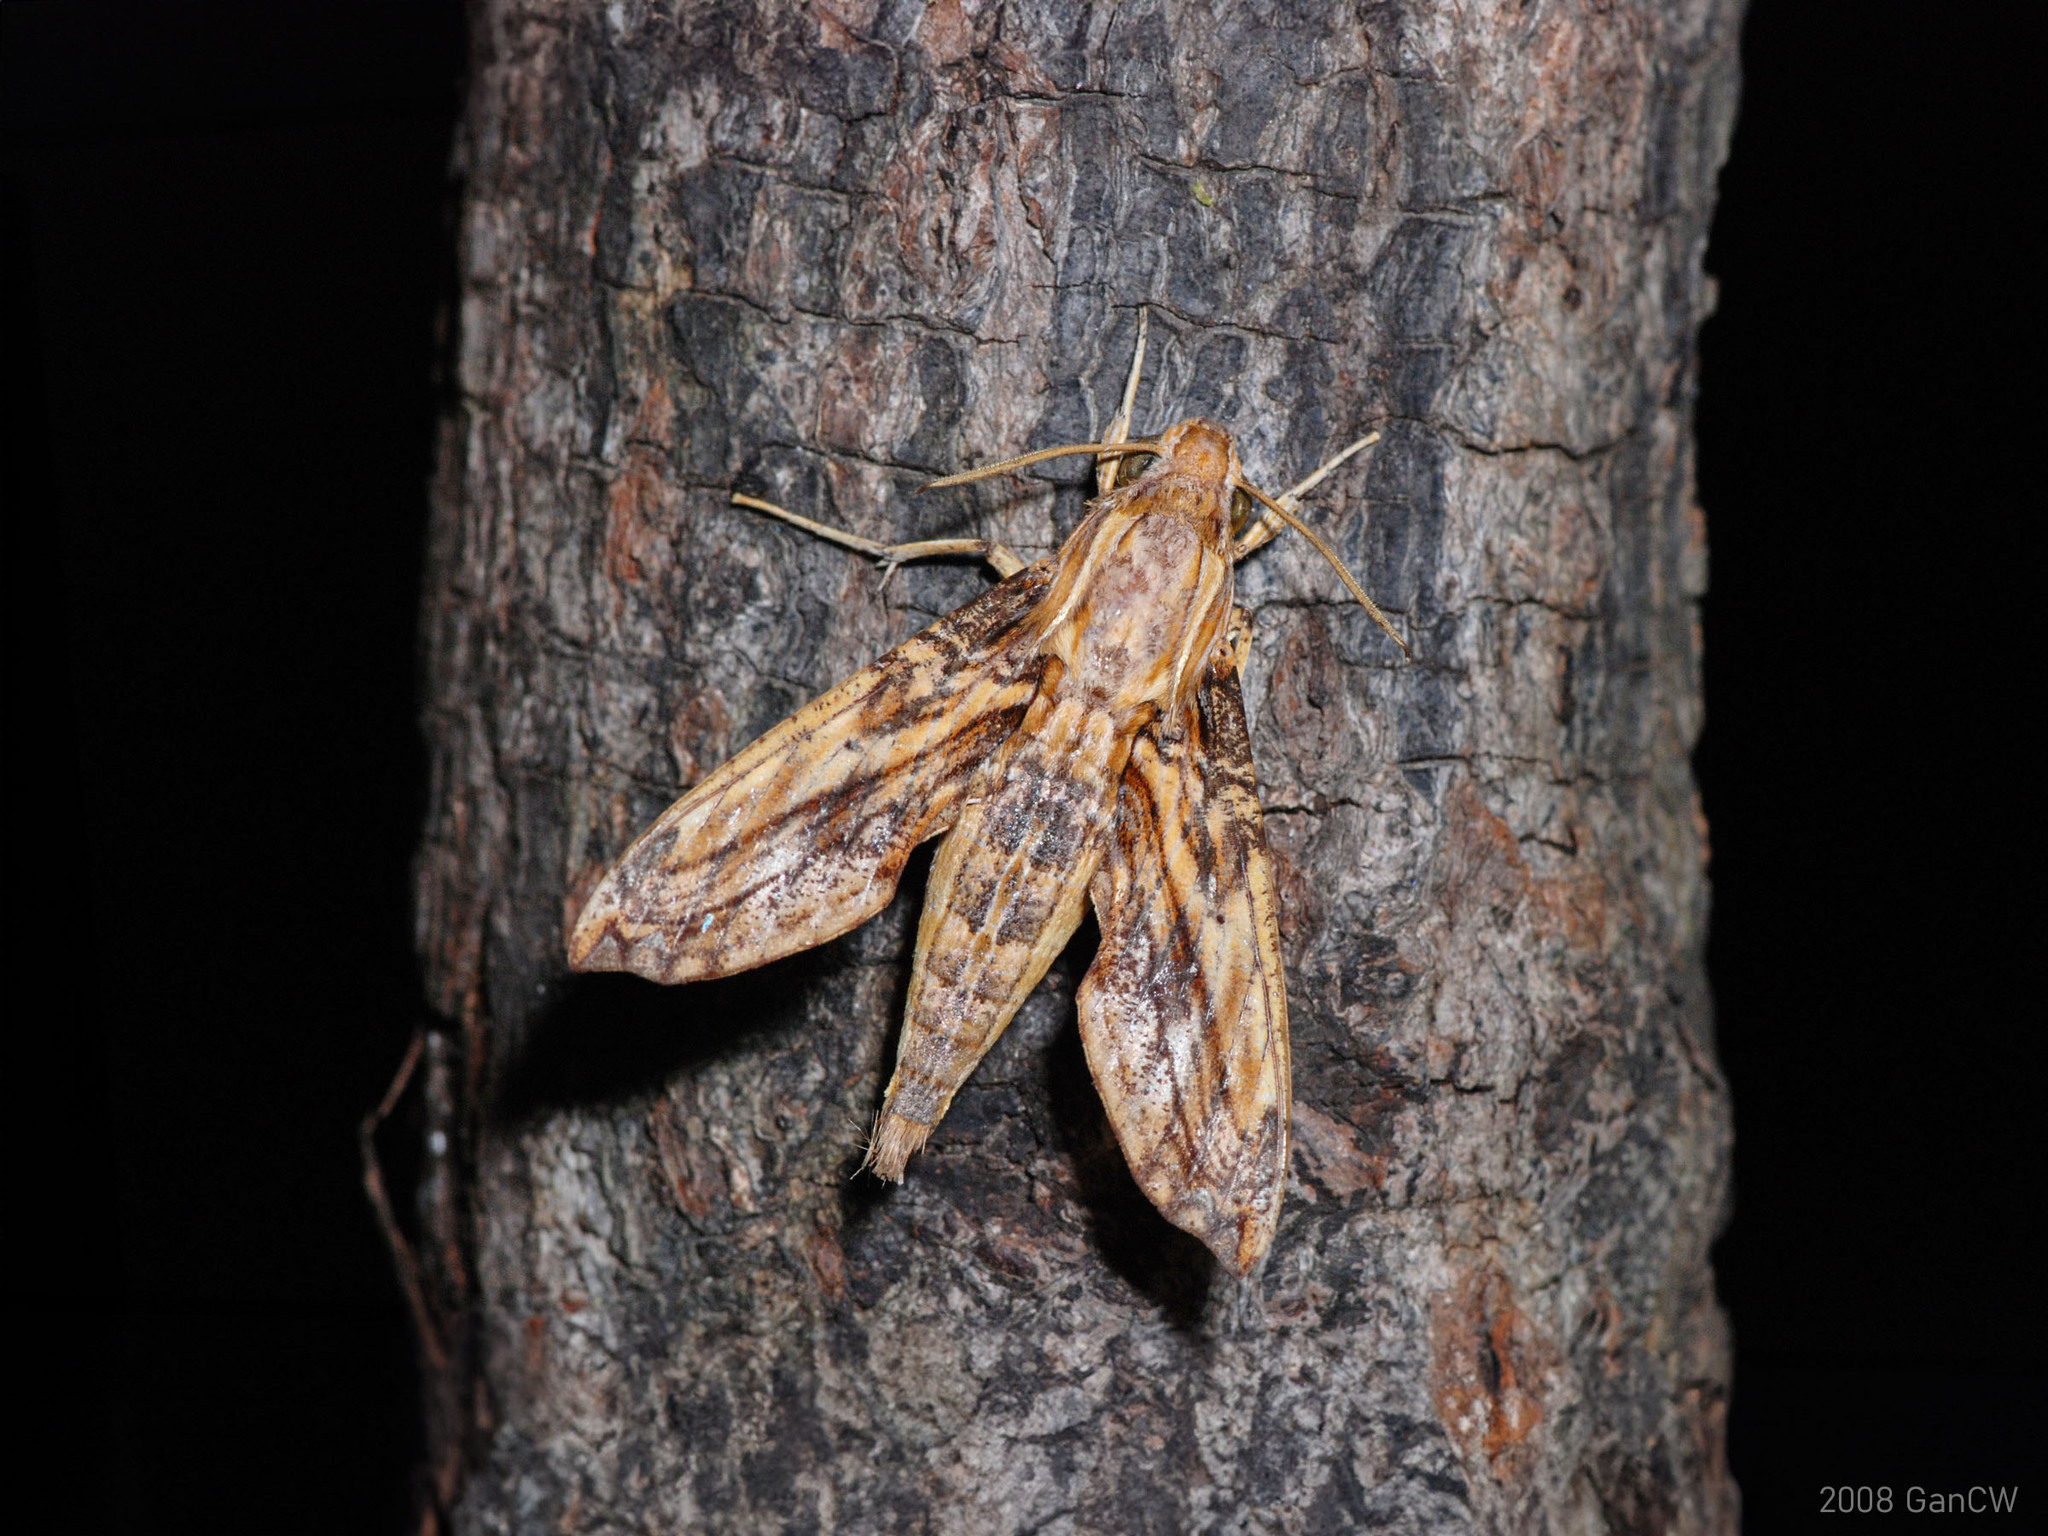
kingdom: Animalia
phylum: Arthropoda
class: Insecta
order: Lepidoptera
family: Sphingidae
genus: Eupanacra
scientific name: Eupanacra variolosa
